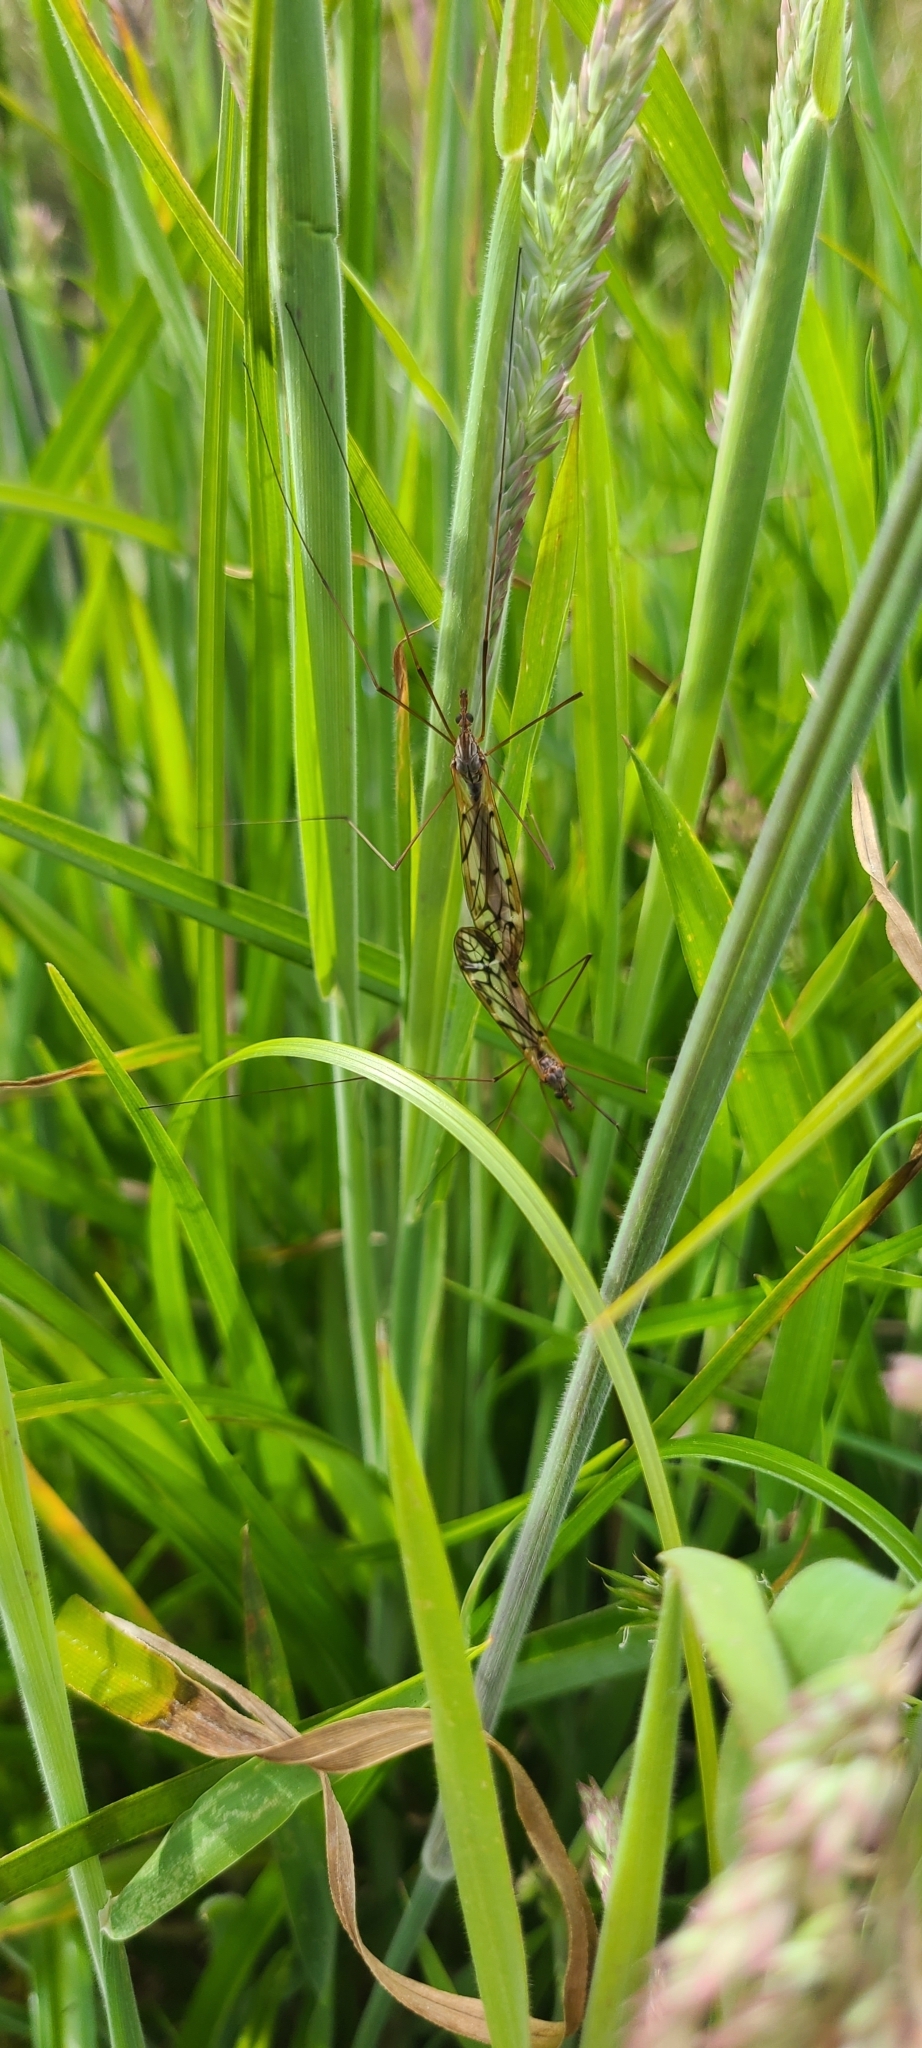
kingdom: Animalia
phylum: Arthropoda
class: Insecta
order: Diptera
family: Tipulidae
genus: Zelandotipula
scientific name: Zelandotipula novarae
